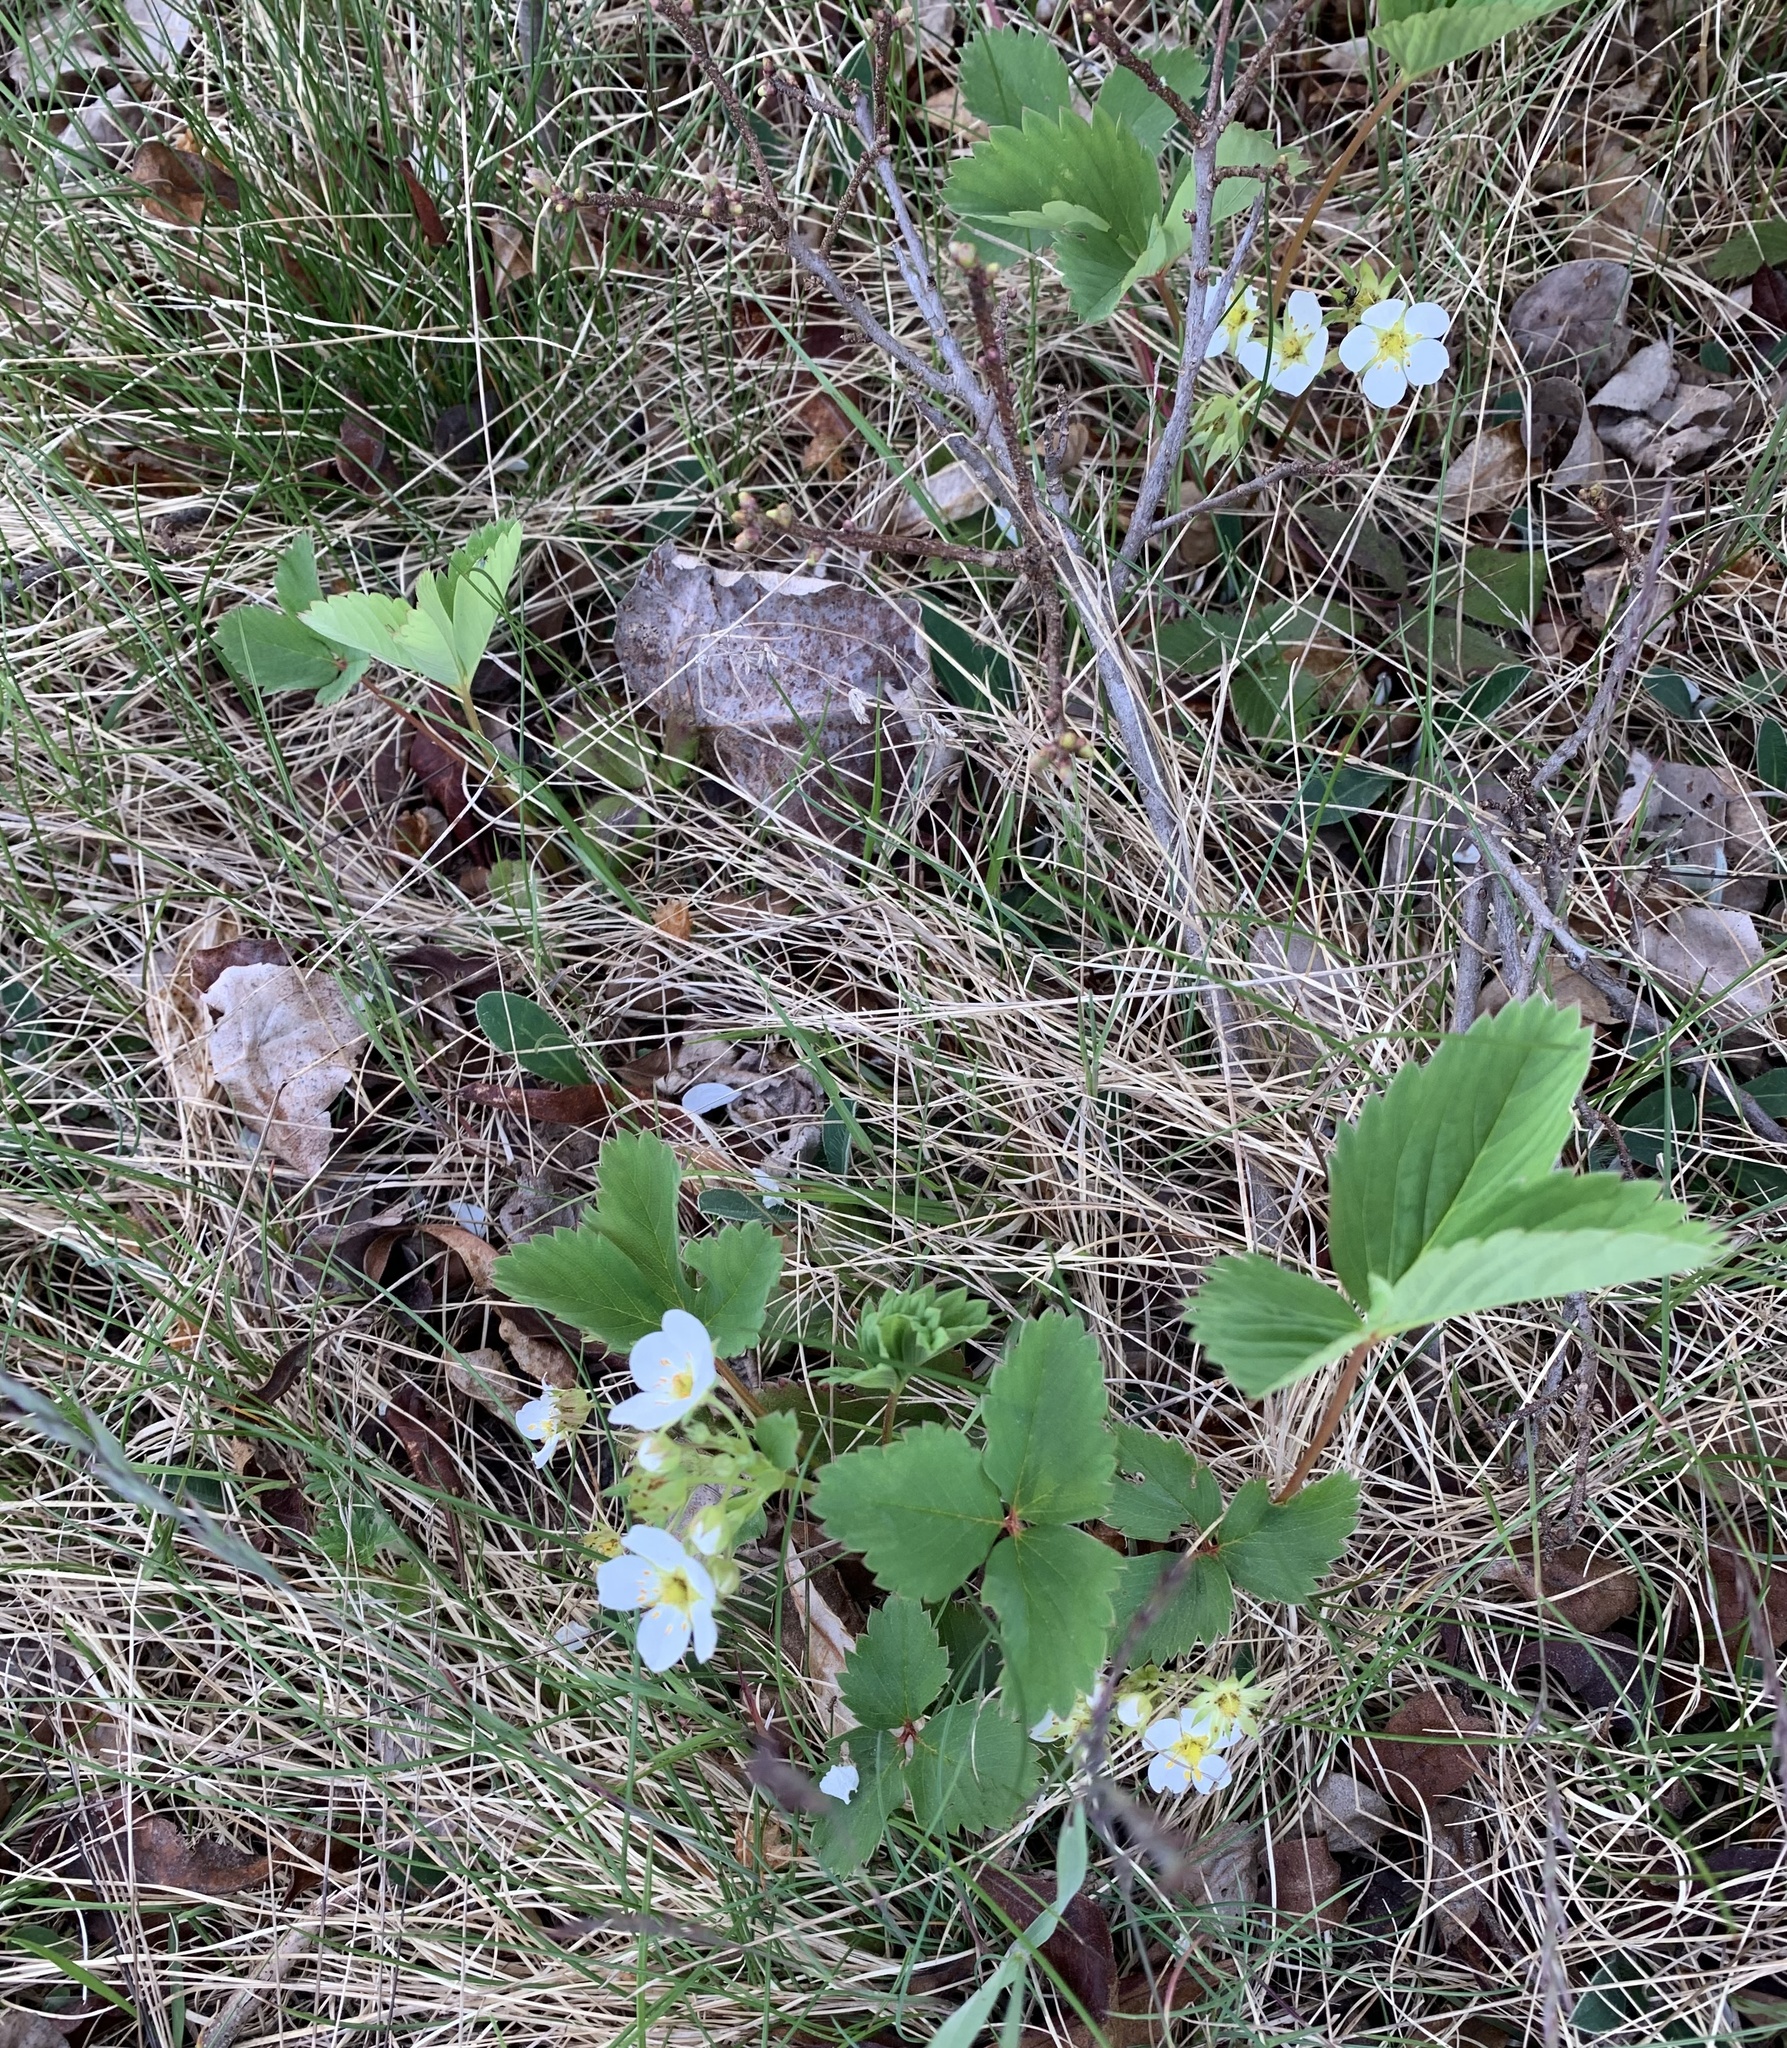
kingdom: Plantae
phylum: Tracheophyta
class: Magnoliopsida
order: Rosales
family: Rosaceae
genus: Fragaria
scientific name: Fragaria virginiana
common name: Thickleaved wild strawberry
